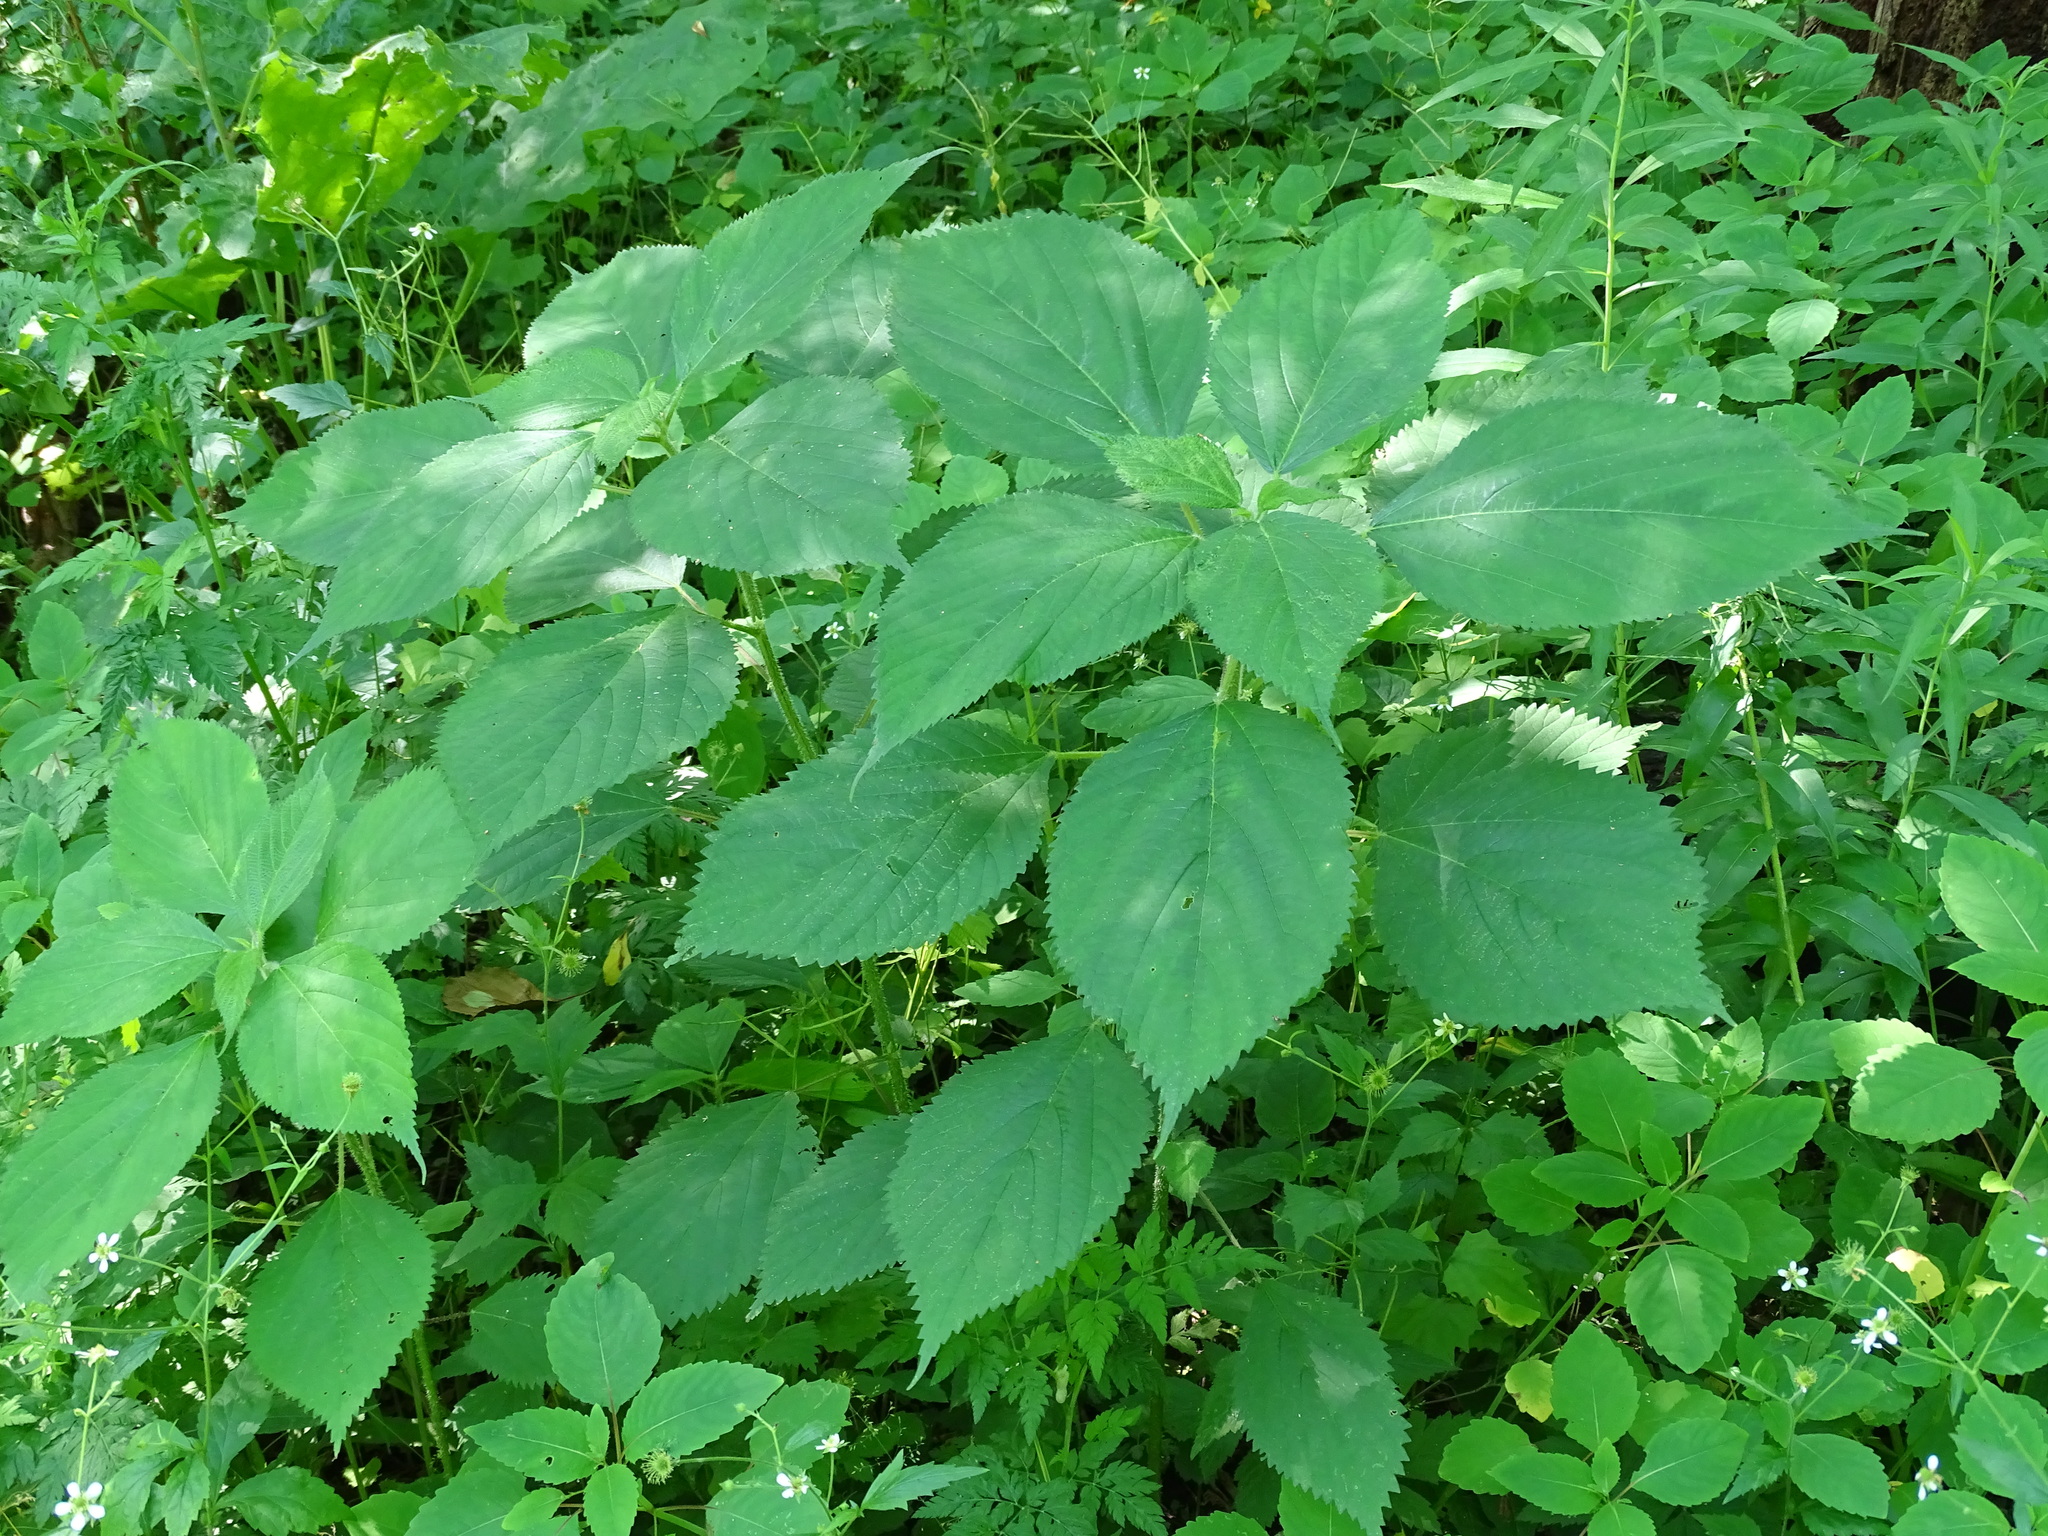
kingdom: Plantae
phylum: Tracheophyta
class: Magnoliopsida
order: Rosales
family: Urticaceae
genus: Laportea
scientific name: Laportea canadensis
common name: Canada nettle
